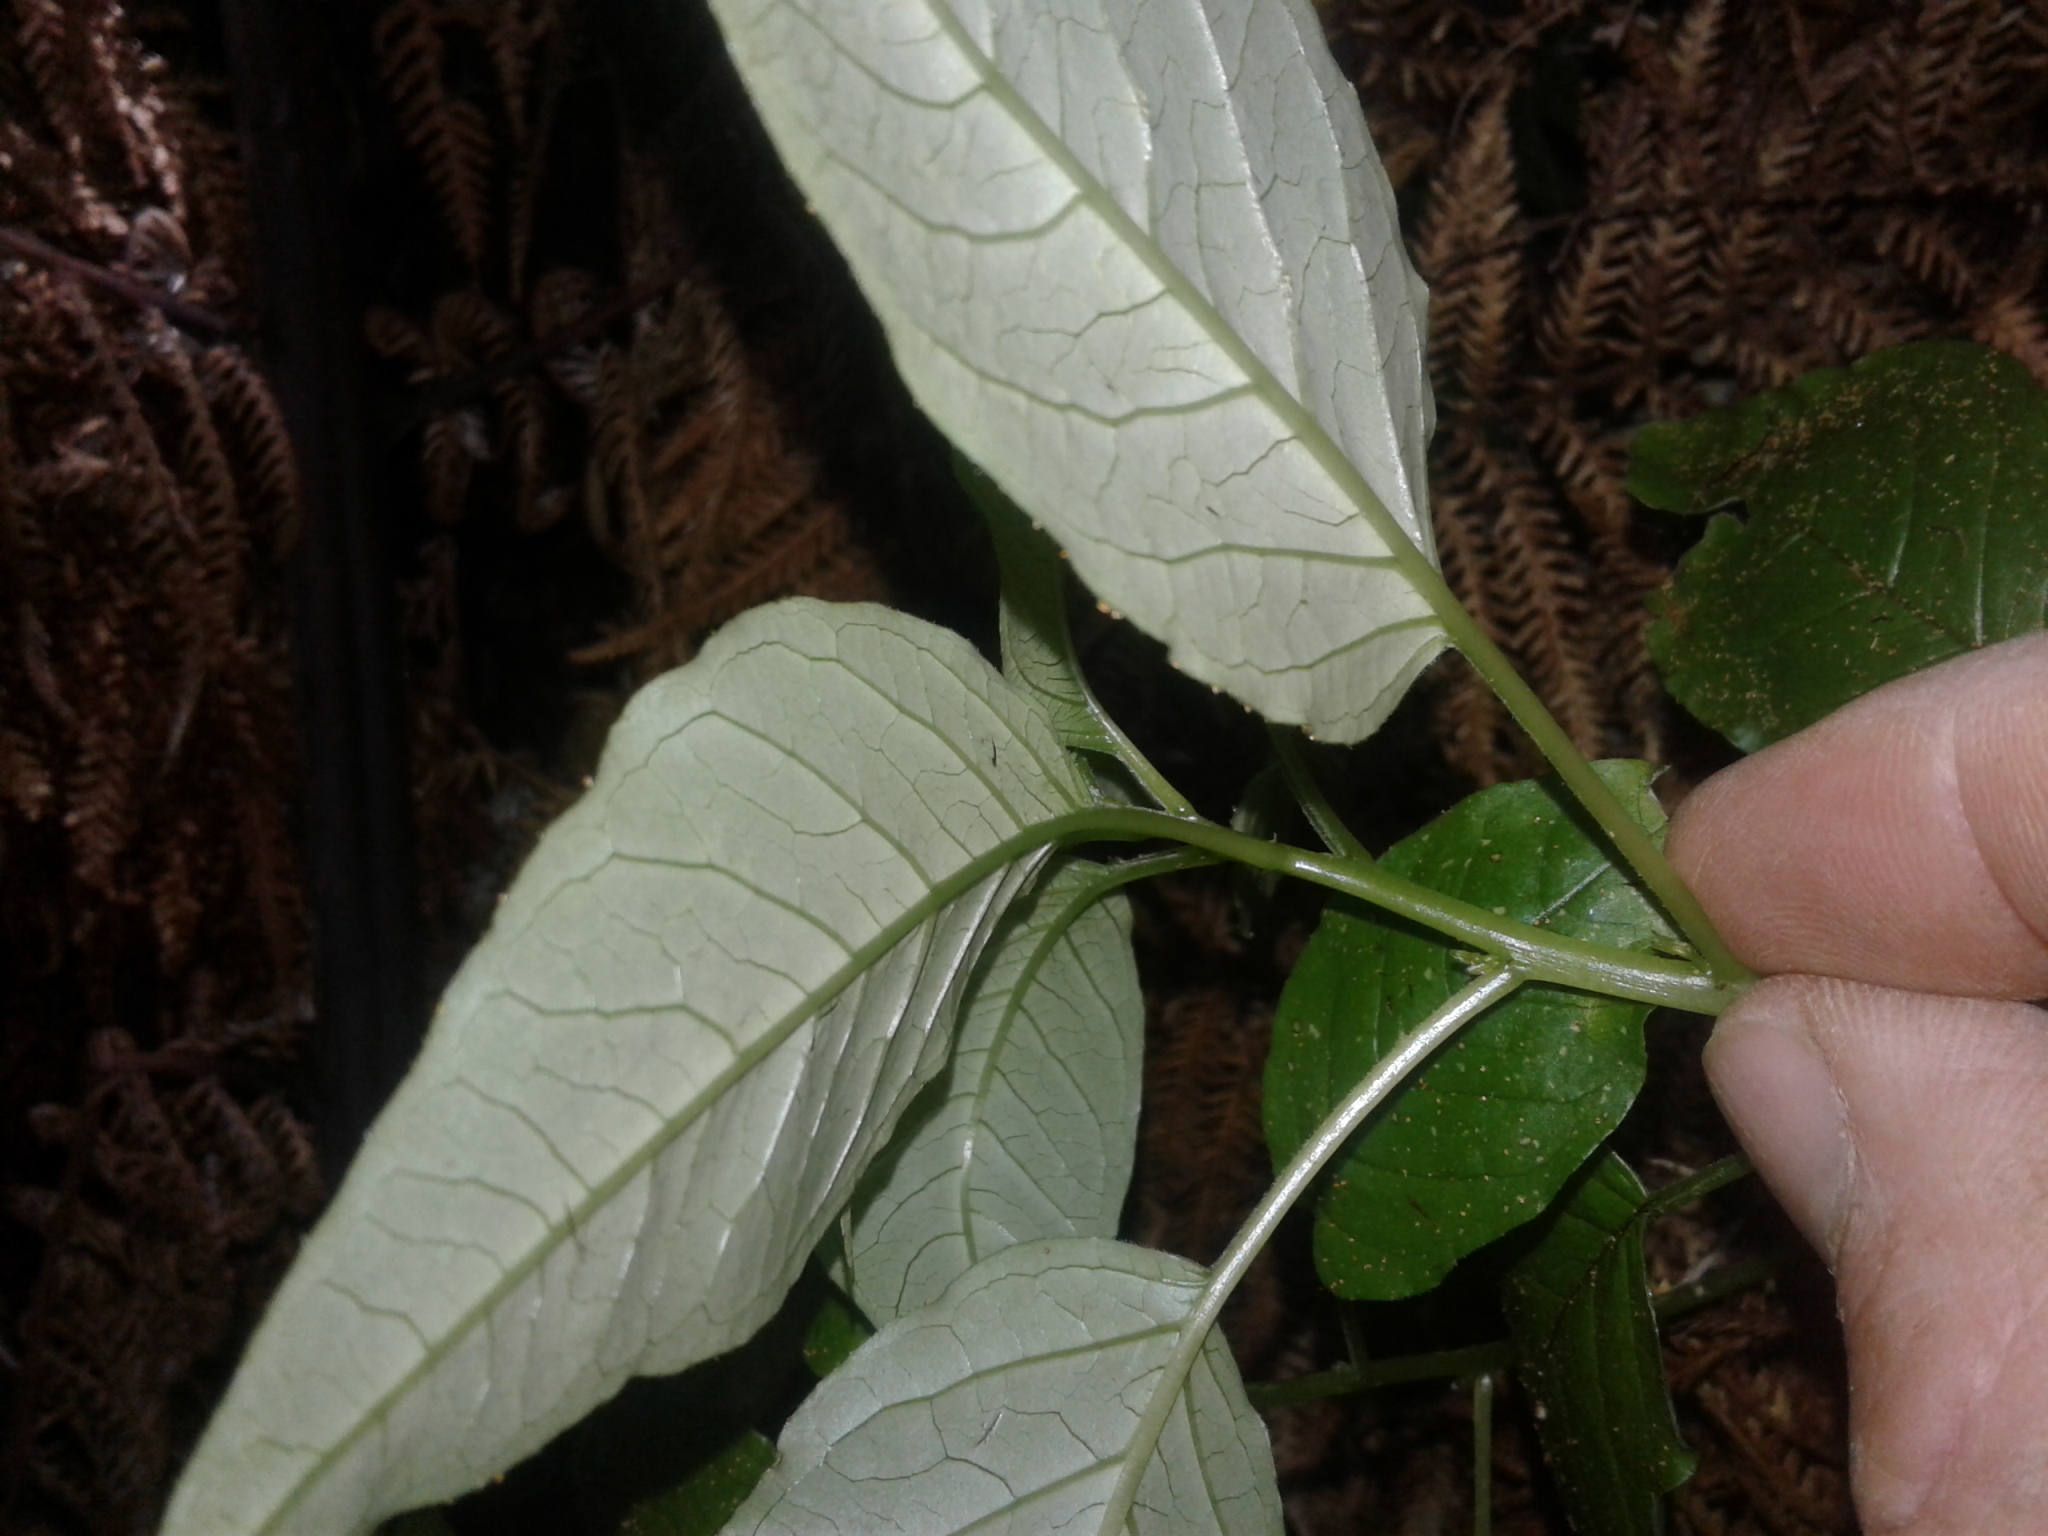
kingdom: Plantae
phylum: Tracheophyta
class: Magnoliopsida
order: Myrtales
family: Onagraceae
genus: Fuchsia
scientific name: Fuchsia excorticata
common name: Tree fuchsia
